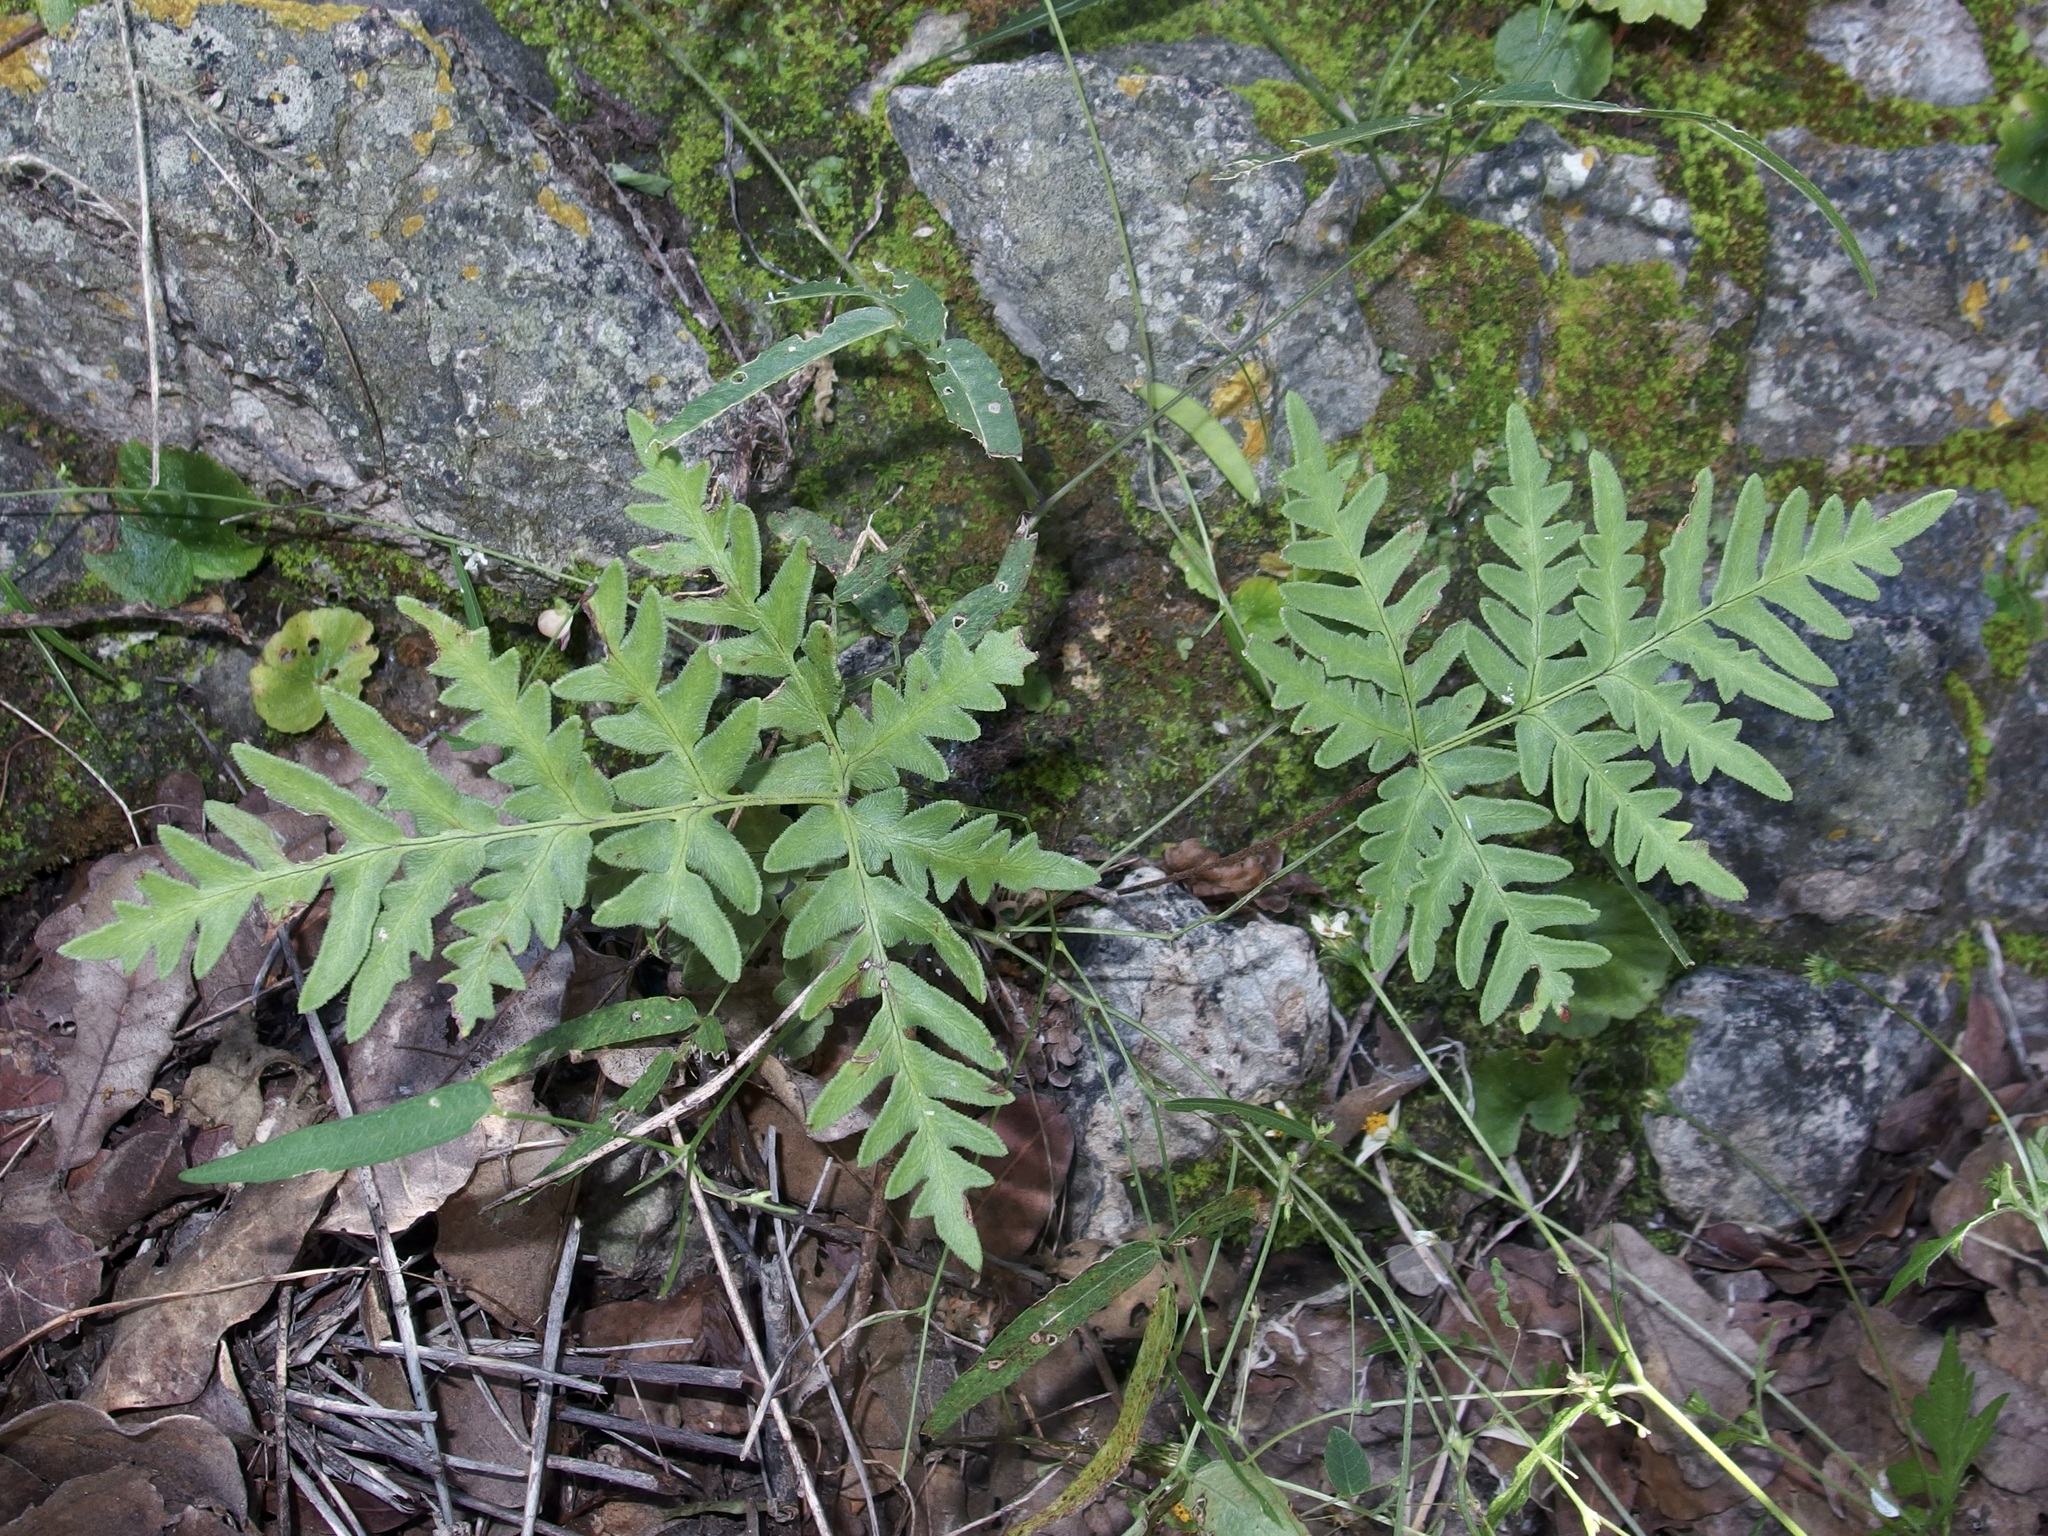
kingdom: Plantae
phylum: Tracheophyta
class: Polypodiopsida
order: Polypodiales
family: Pteridaceae
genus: Cheiloplecton
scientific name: Cheiloplecton rigidum
